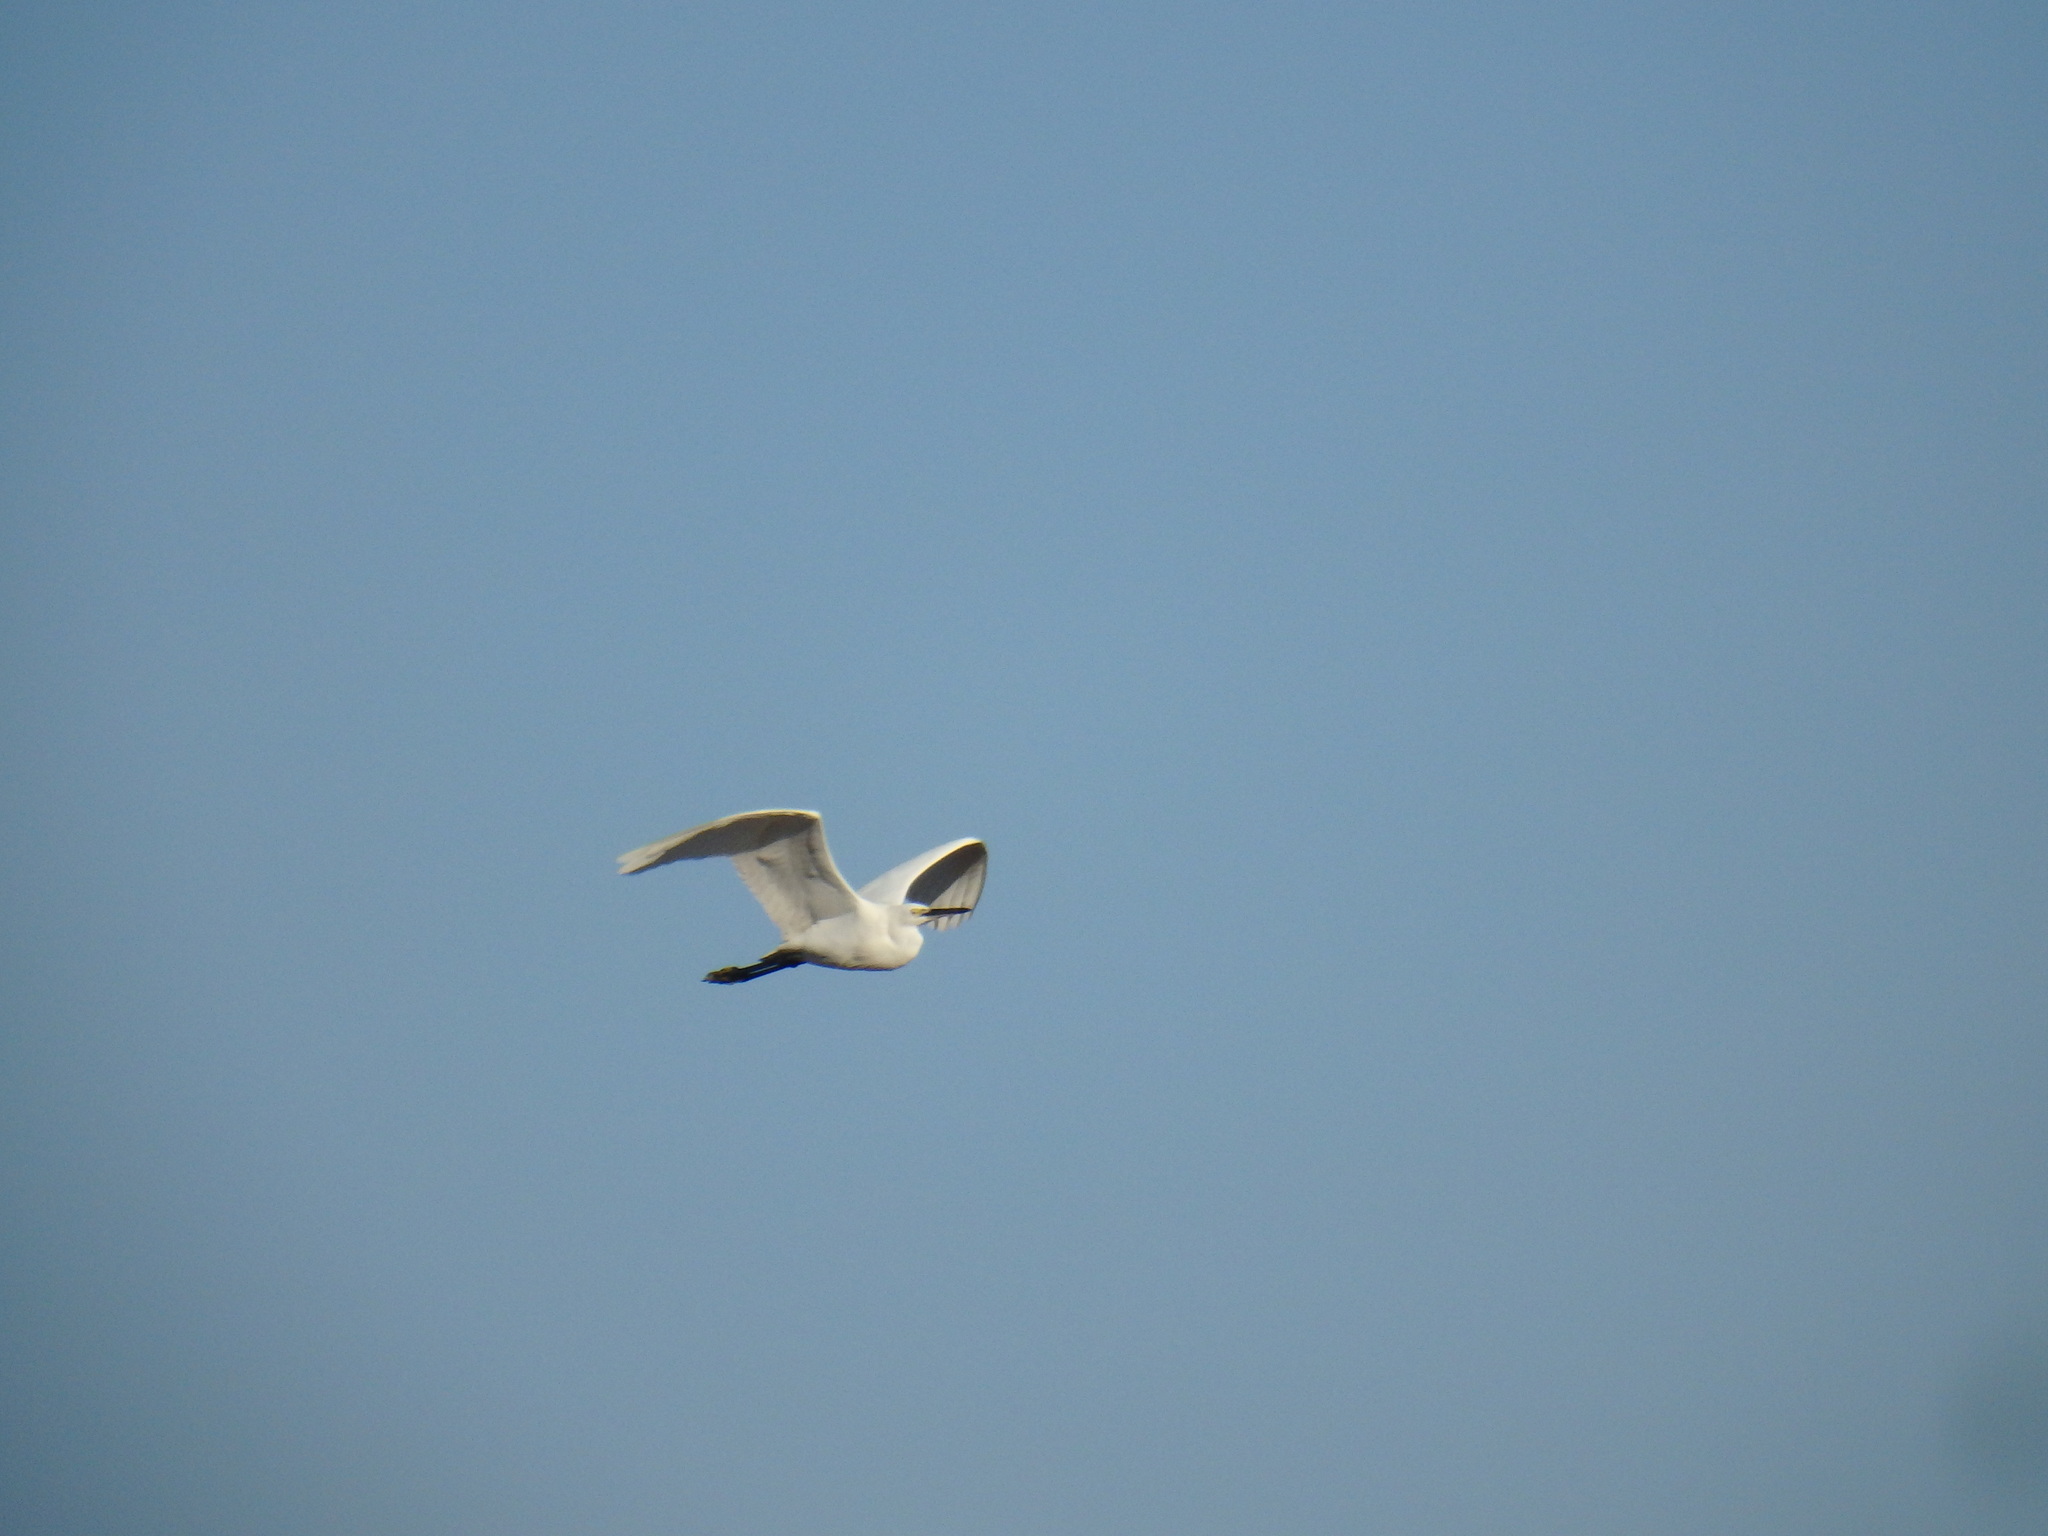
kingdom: Animalia
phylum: Chordata
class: Aves
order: Pelecaniformes
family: Ardeidae
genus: Egretta
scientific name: Egretta garzetta
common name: Little egret
